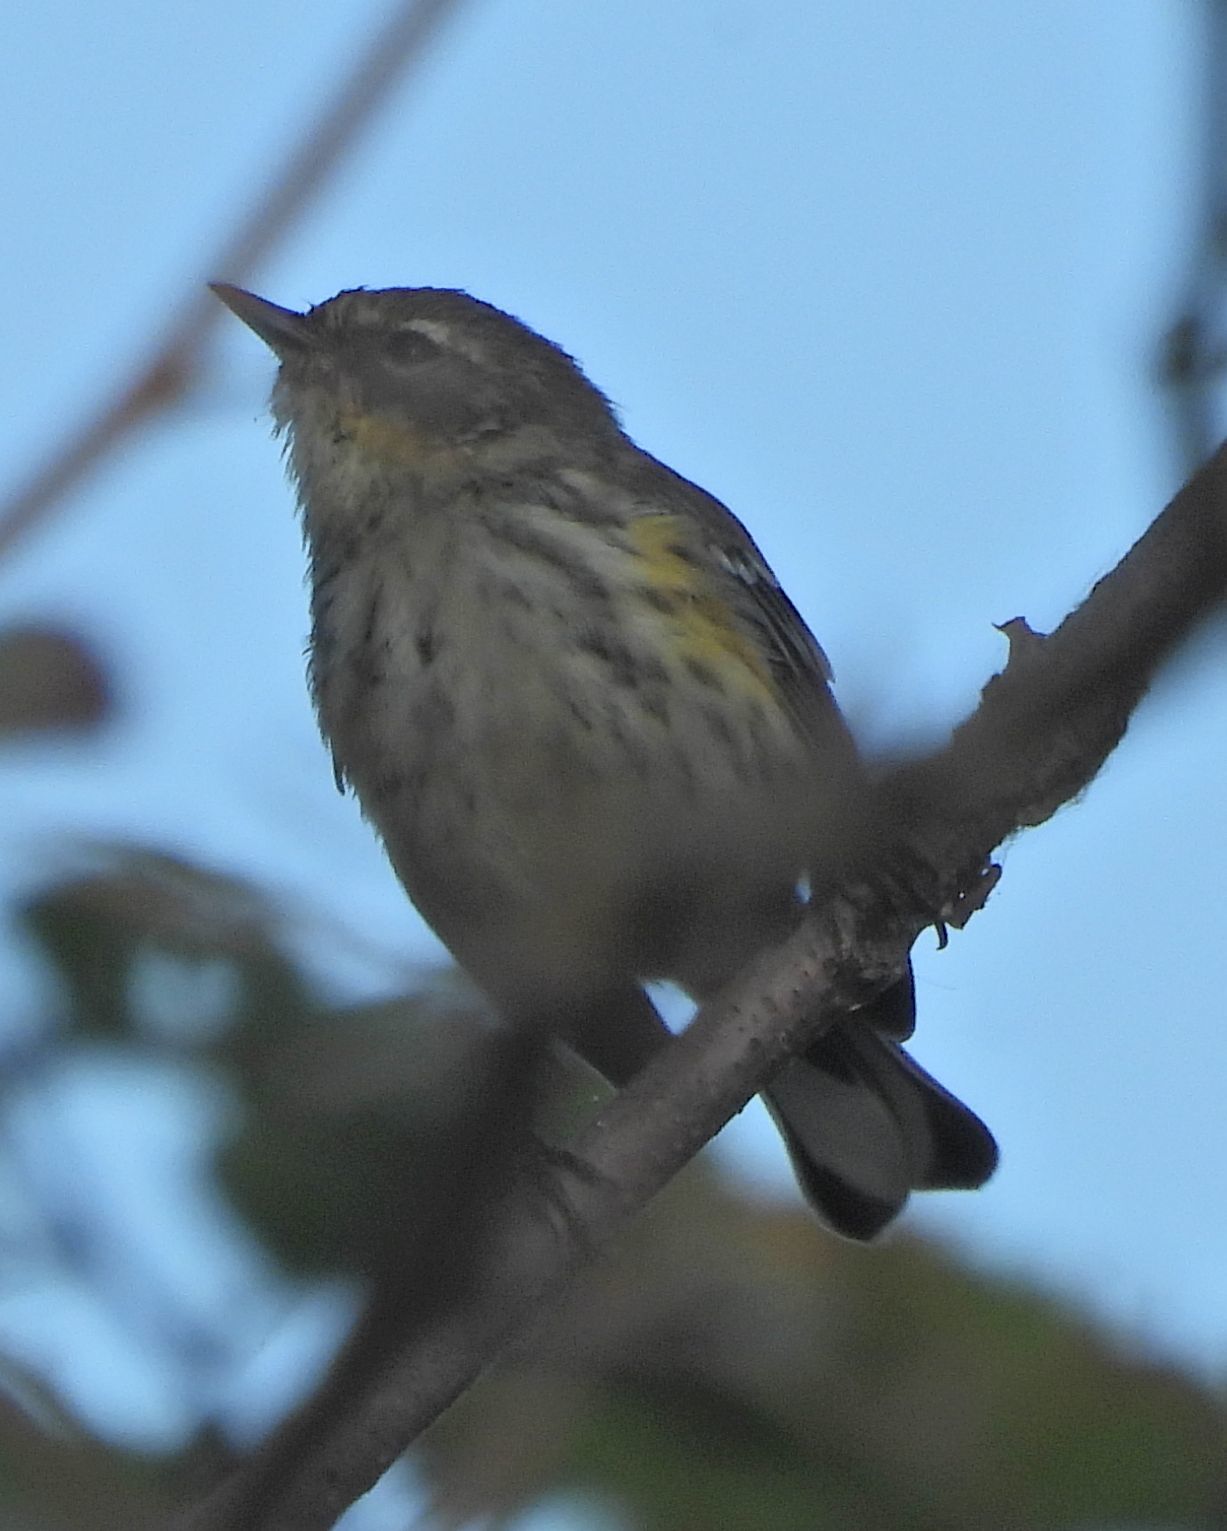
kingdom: Animalia
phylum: Chordata
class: Aves
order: Passeriformes
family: Parulidae
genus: Setophaga
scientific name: Setophaga coronata
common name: Myrtle warbler
